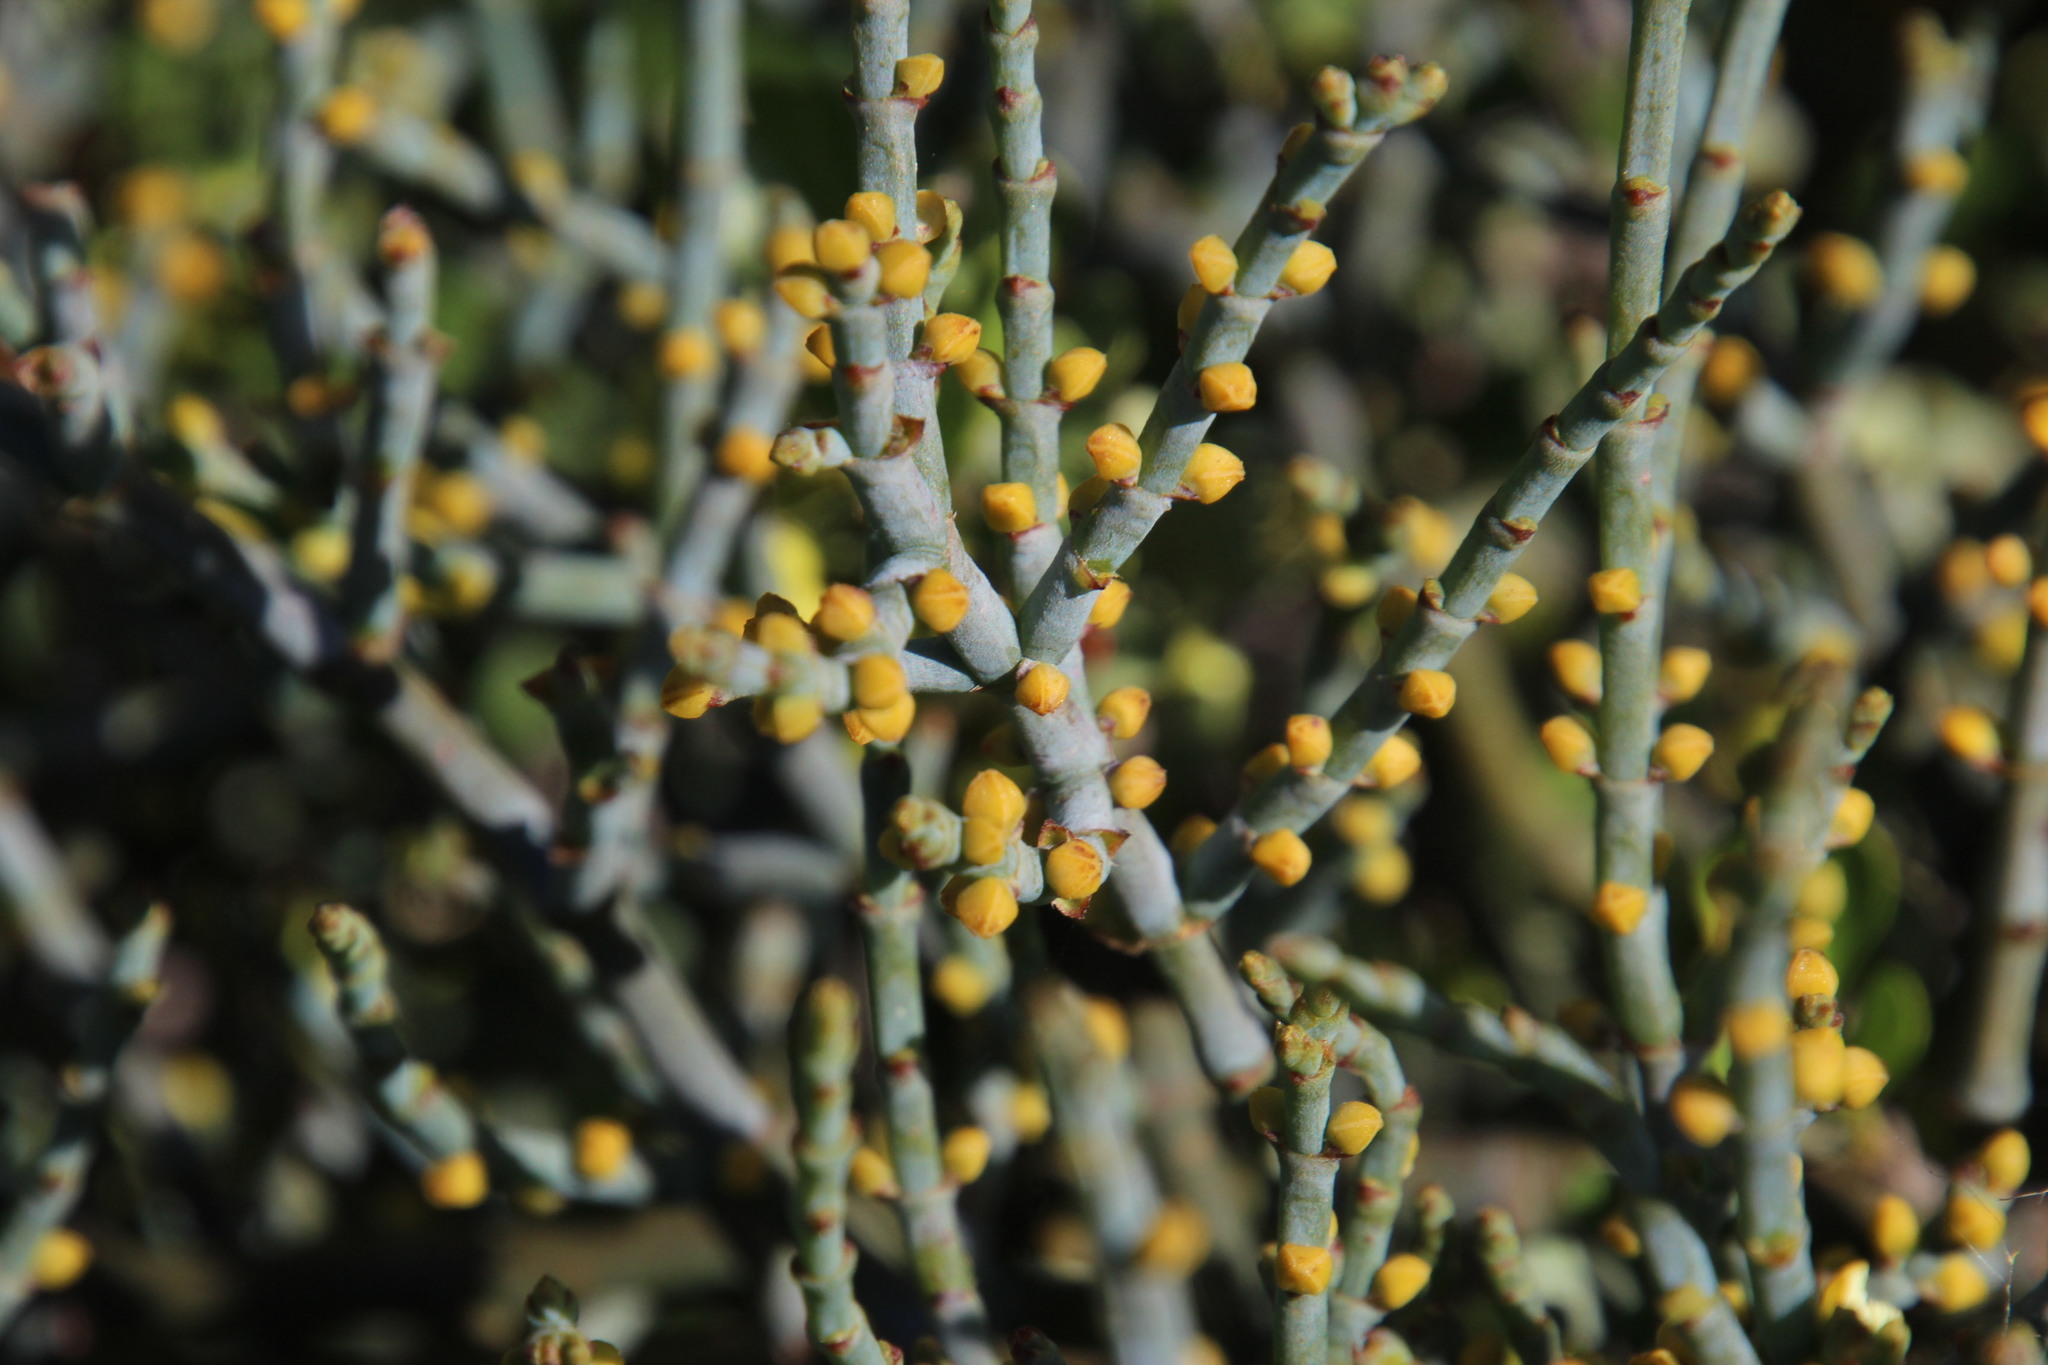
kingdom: Plantae
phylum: Tracheophyta
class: Magnoliopsida
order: Santalales
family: Viscaceae
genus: Viscum
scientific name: Viscum capense
